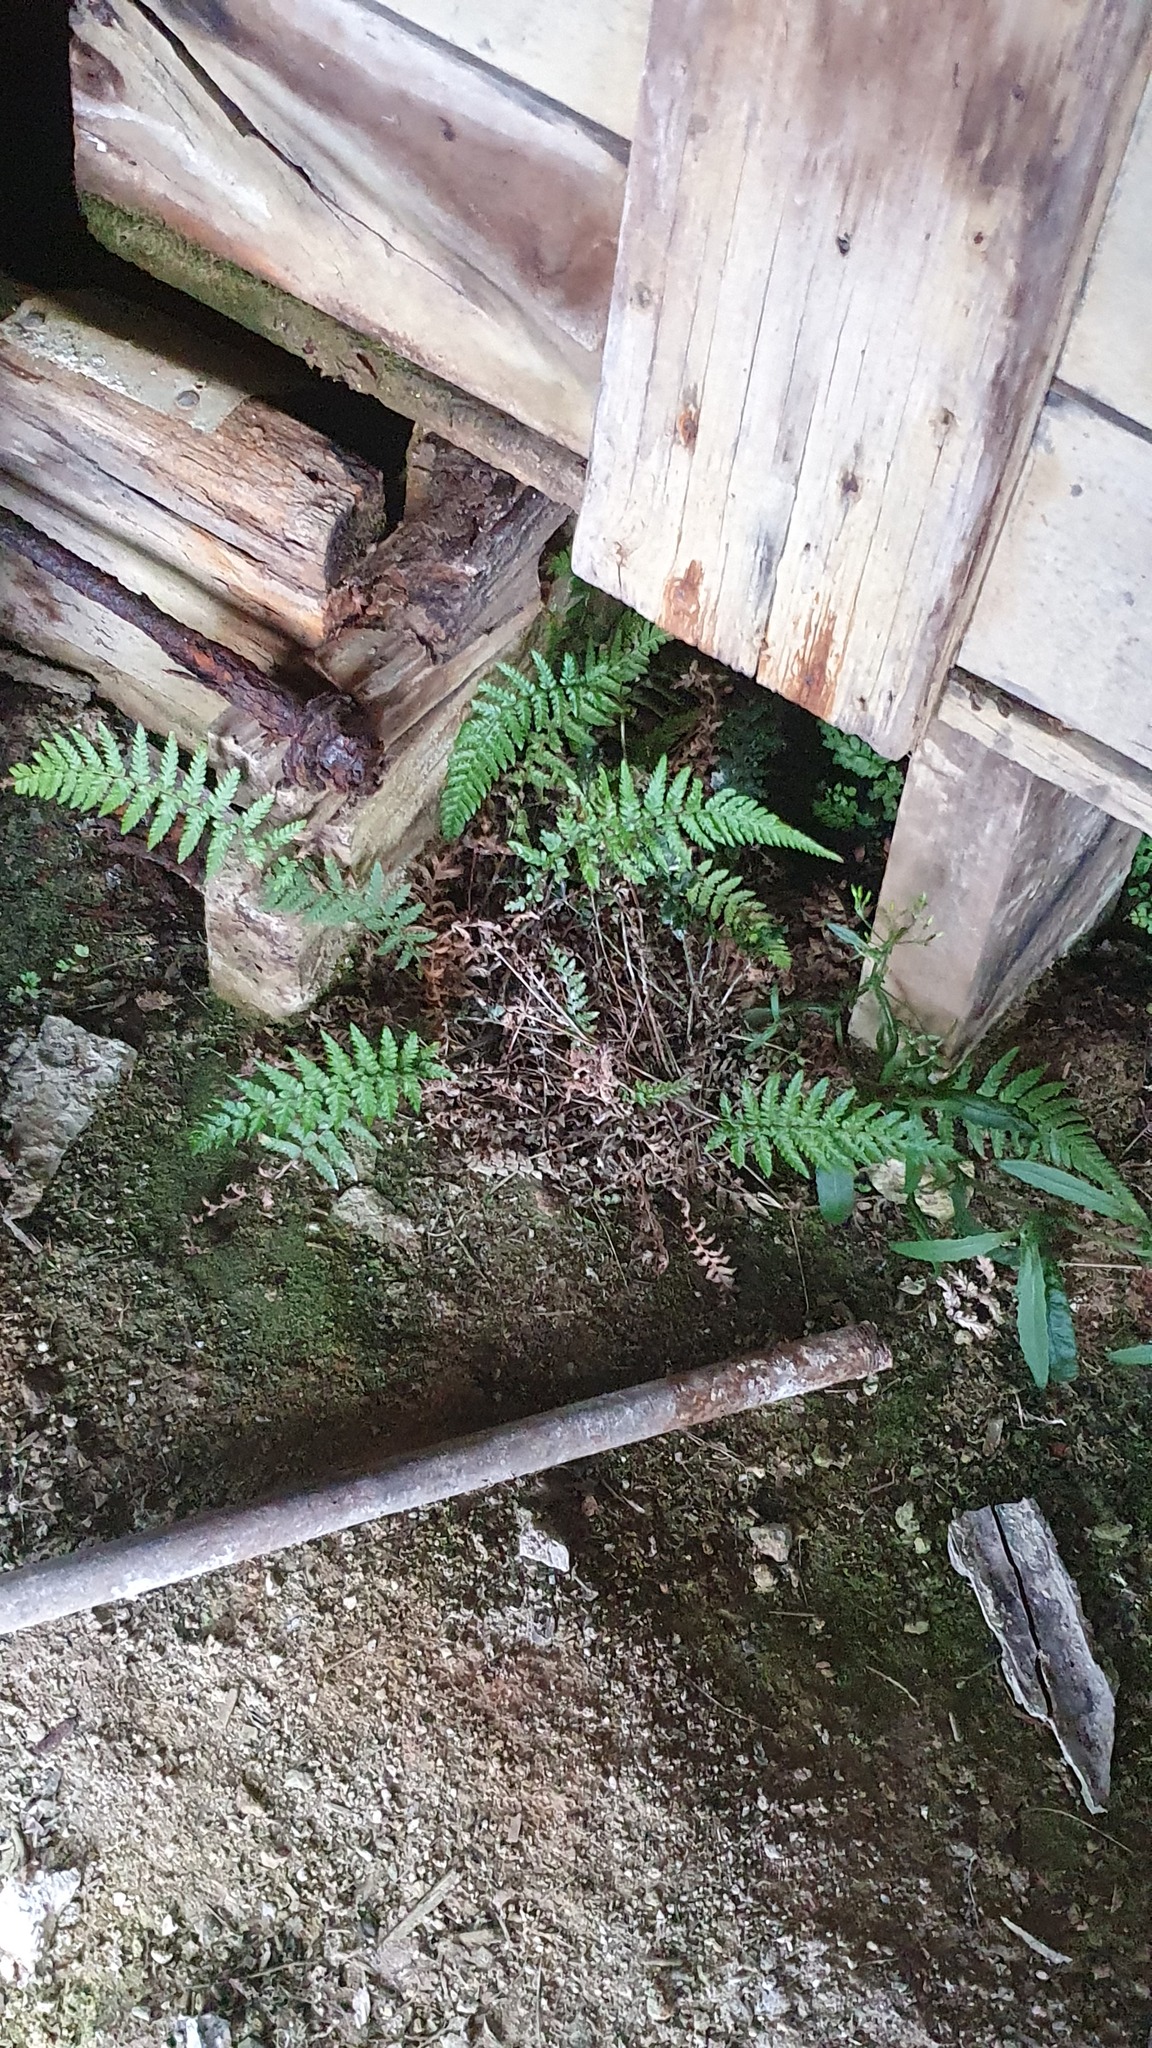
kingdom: Plantae
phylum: Tracheophyta
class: Polypodiopsida
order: Polypodiales
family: Dryopteridaceae
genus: Polystichum
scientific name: Polystichum proliferum
